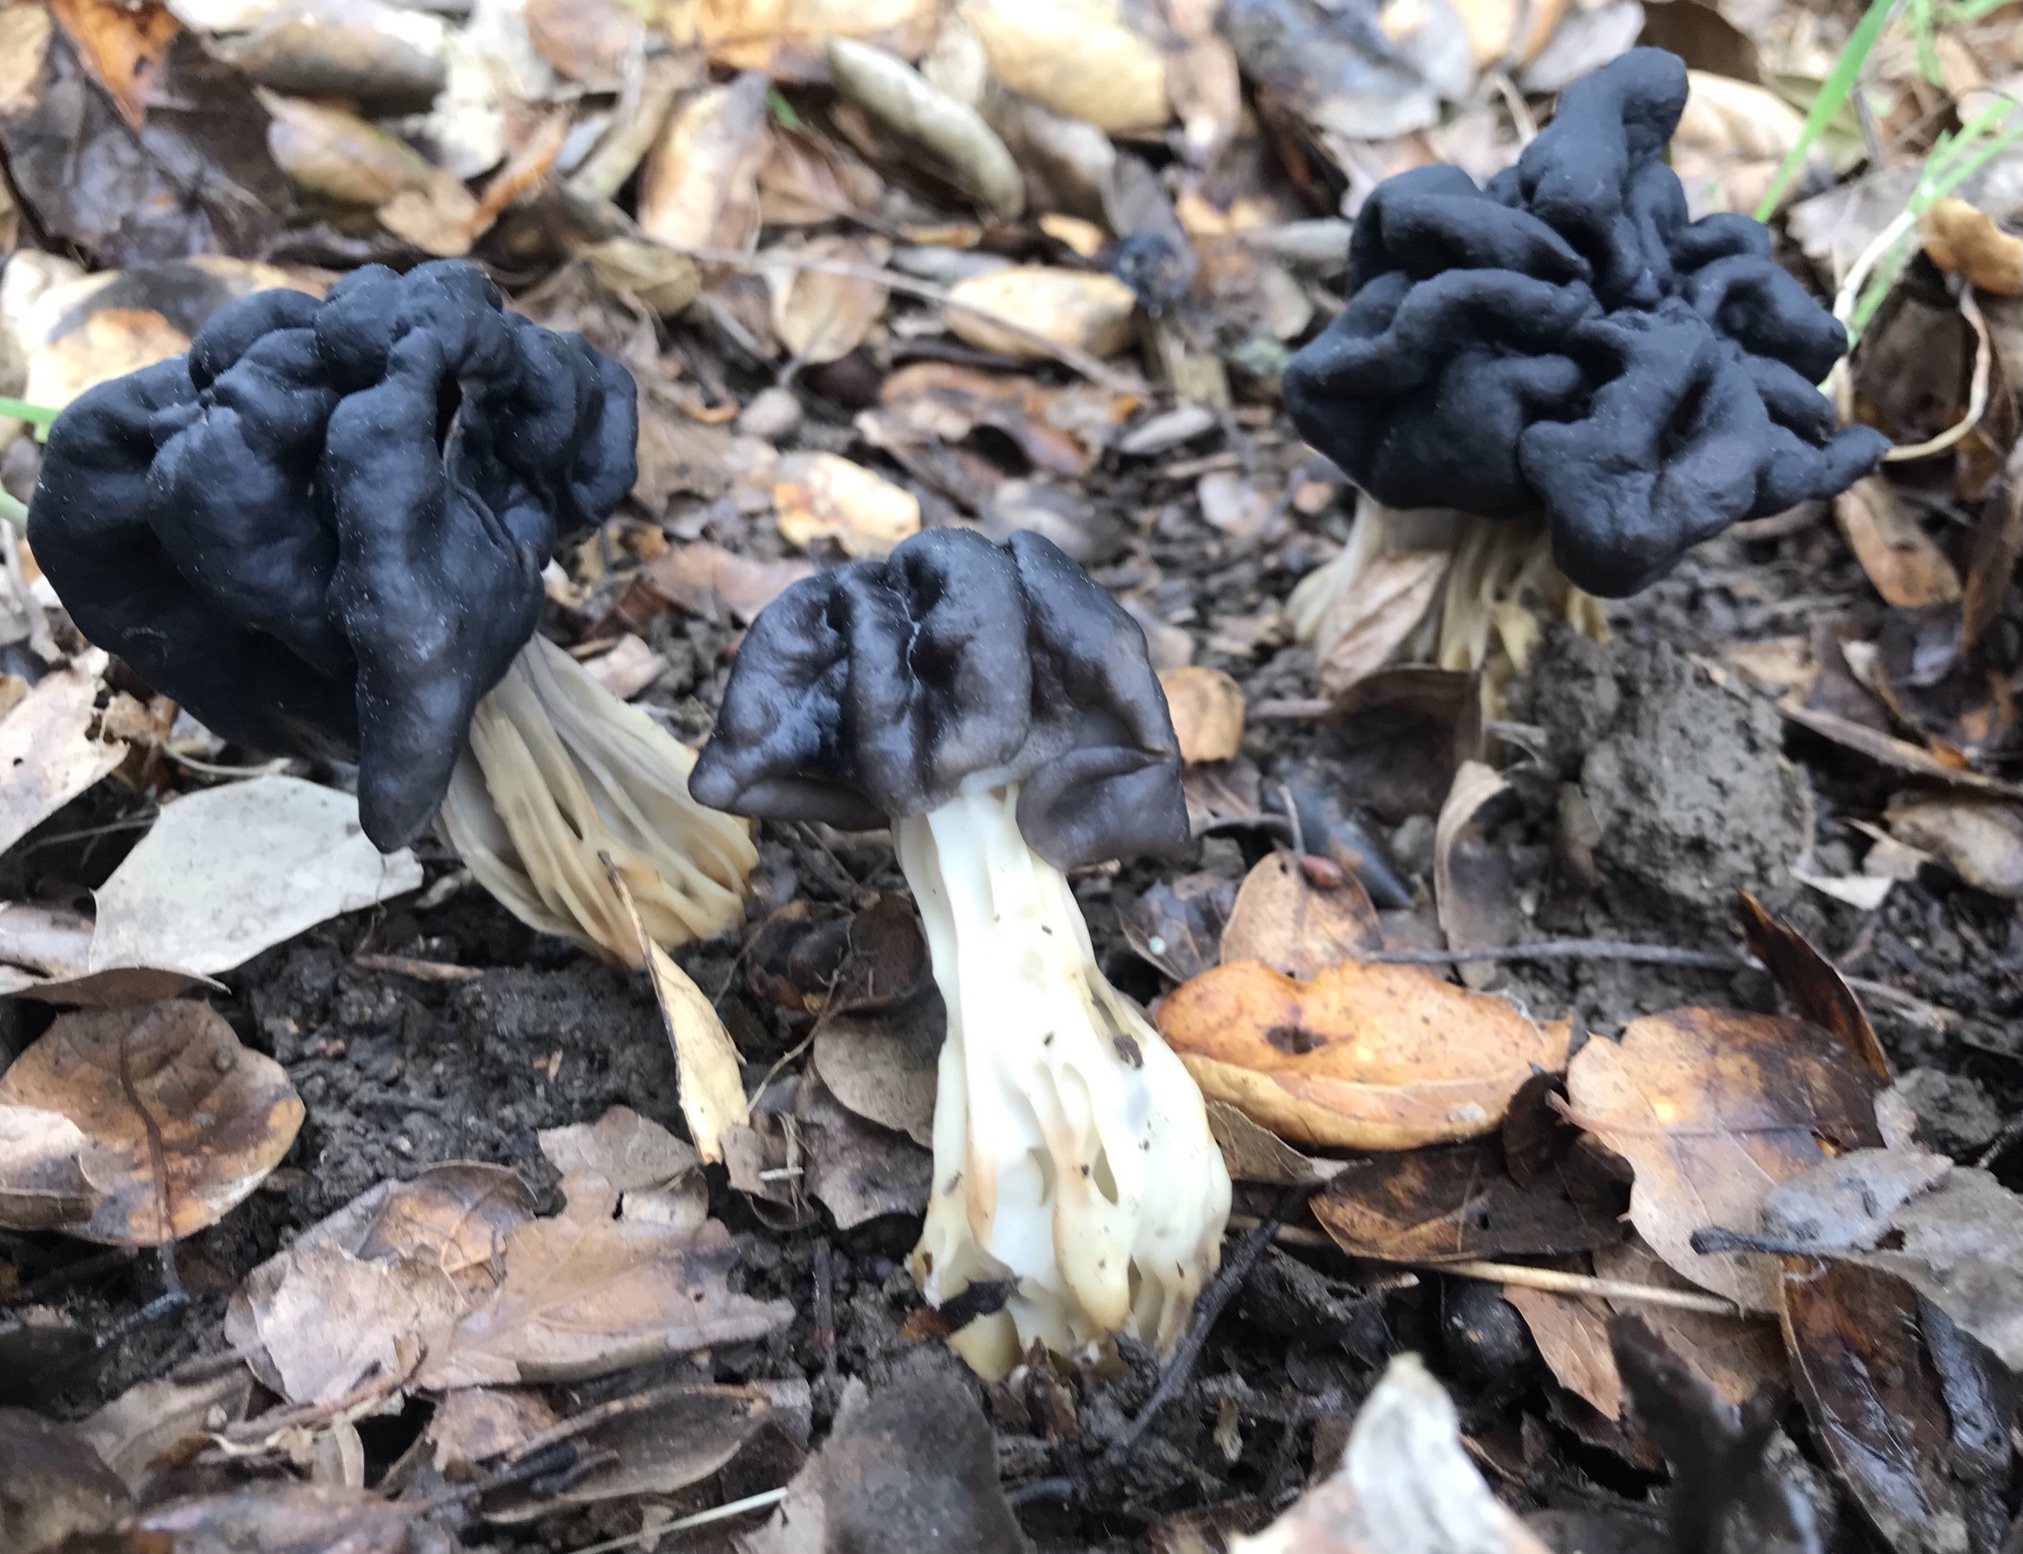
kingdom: Fungi
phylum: Ascomycota
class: Pezizomycetes
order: Pezizales
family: Helvellaceae
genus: Helvella
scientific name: Helvella dryophila
